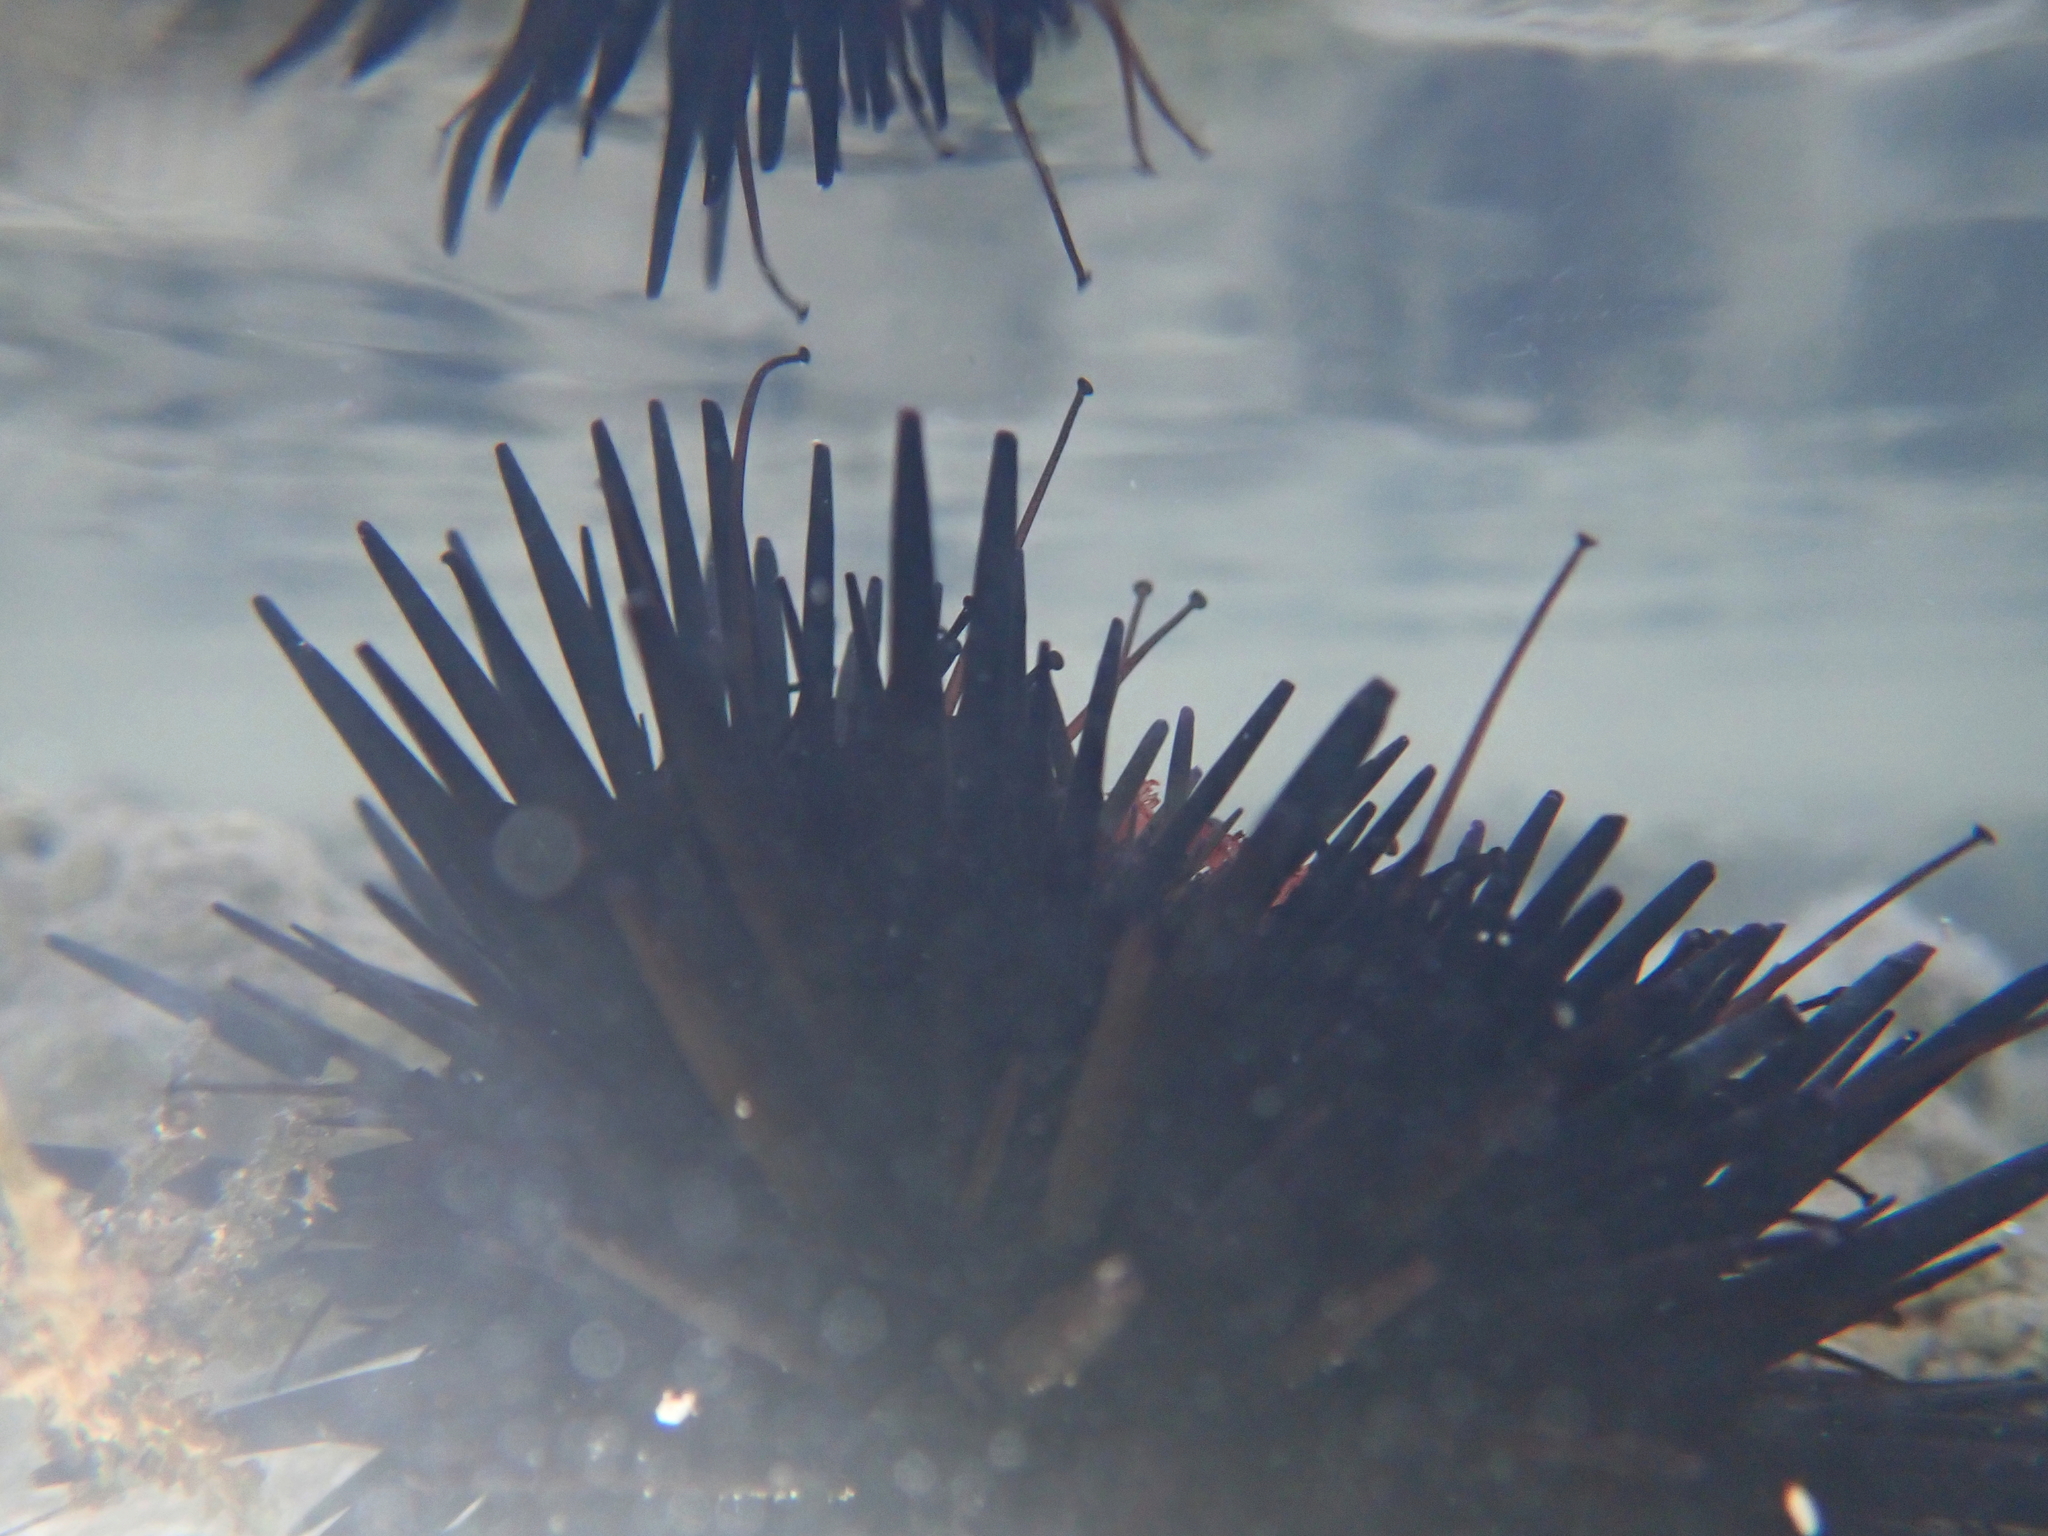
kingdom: Animalia
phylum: Echinodermata
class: Echinoidea
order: Camarodonta
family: Echinometridae
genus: Echinometra
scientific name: Echinometra lucunter
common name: Rock urchin
